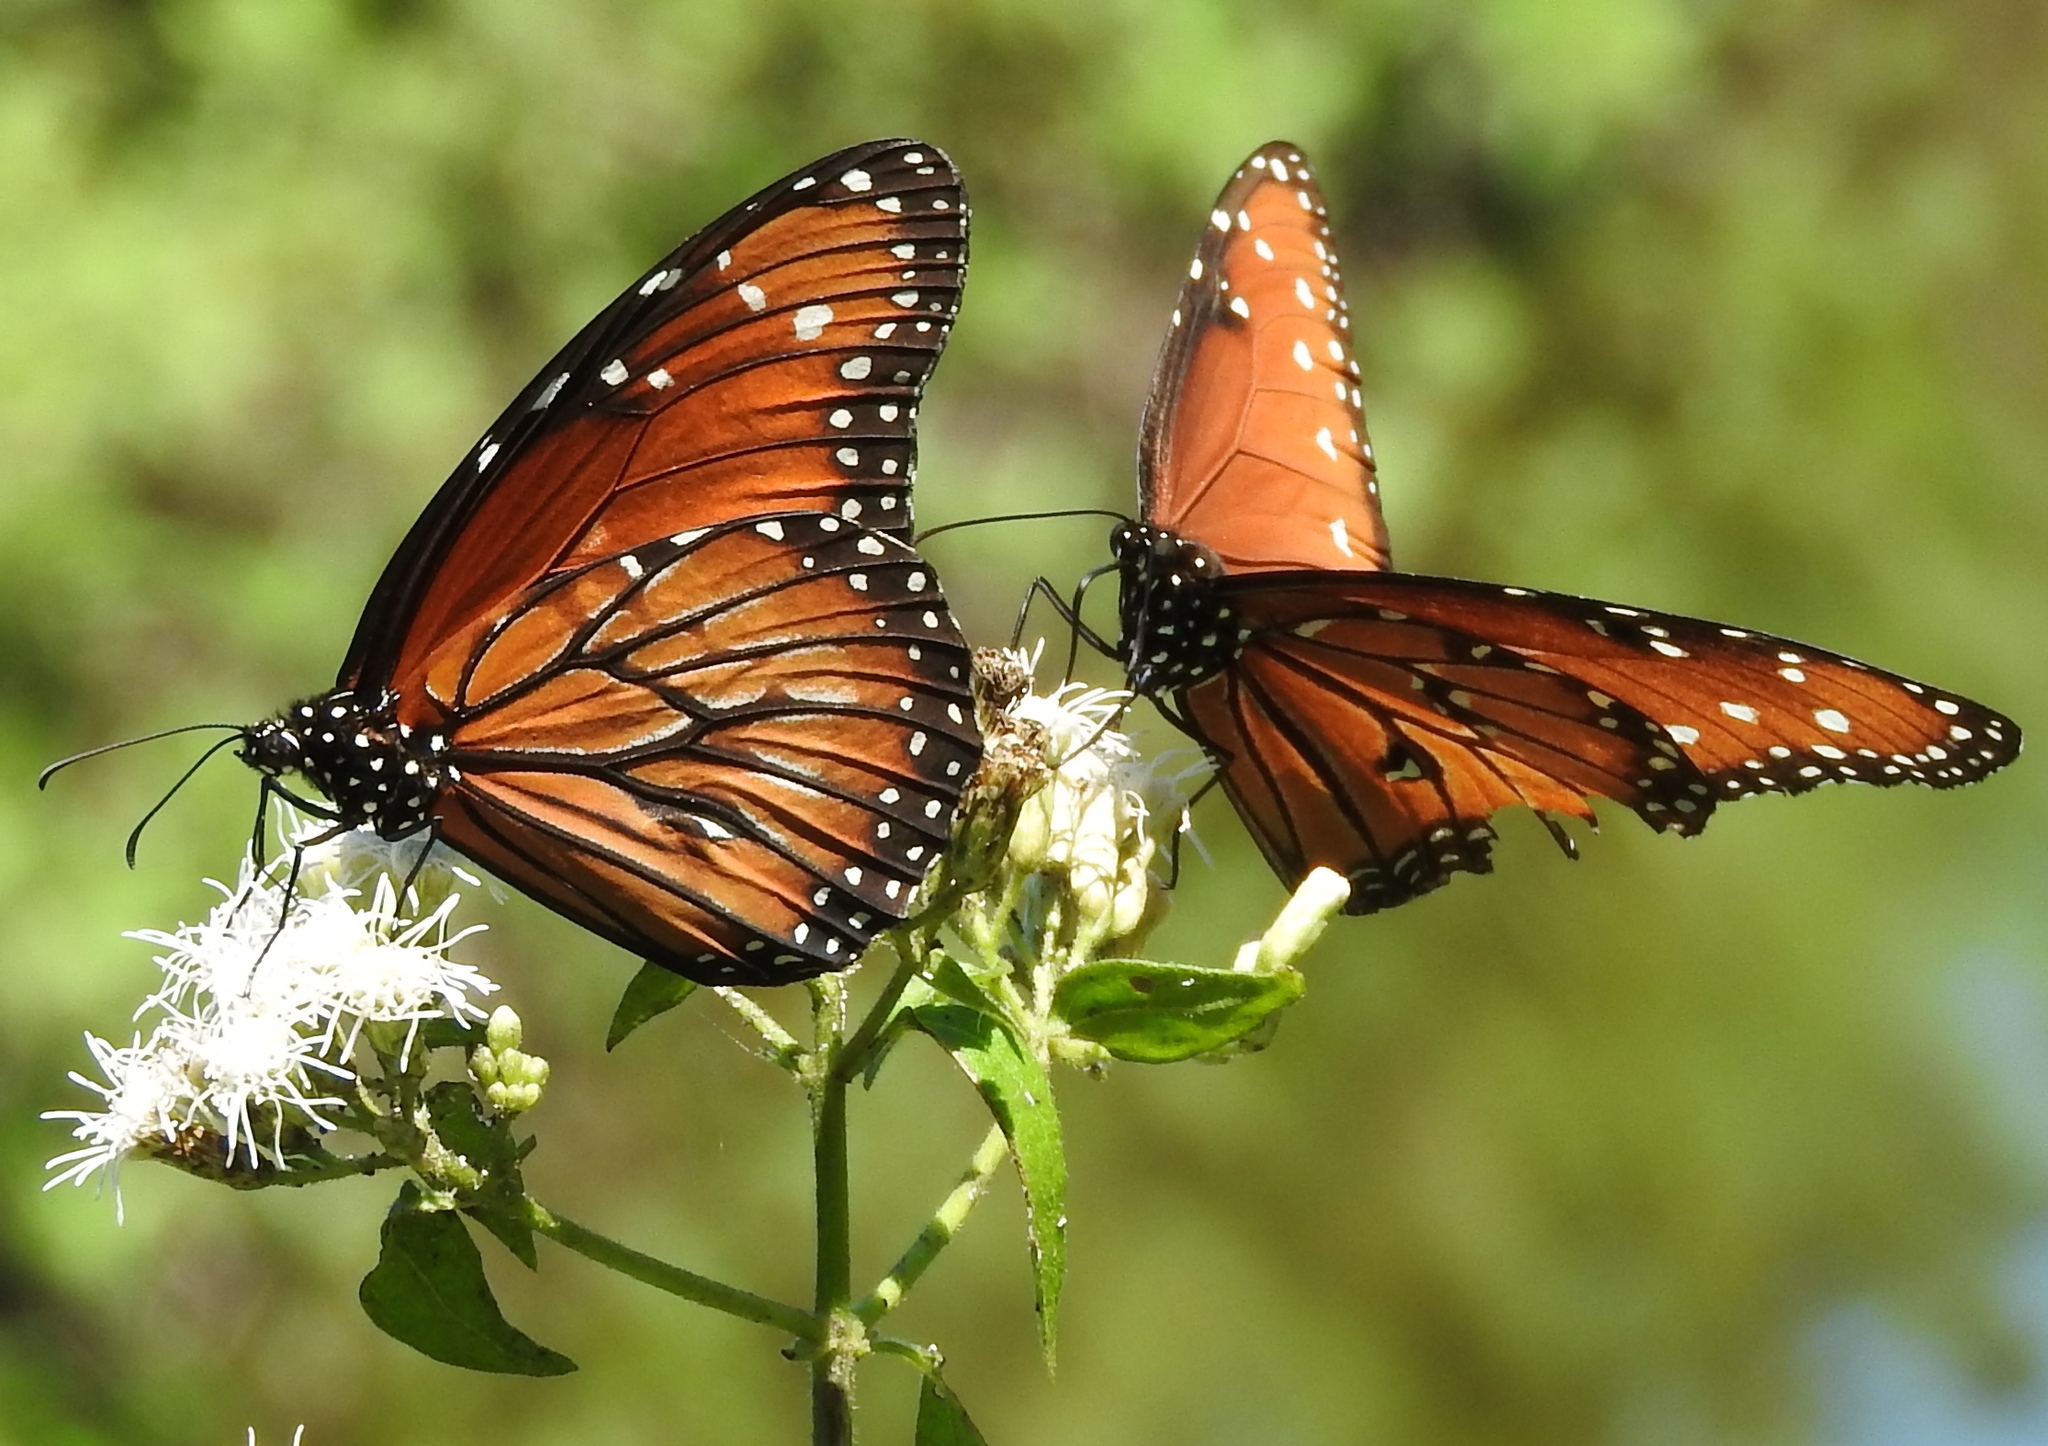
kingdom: Animalia
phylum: Arthropoda
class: Insecta
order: Lepidoptera
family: Nymphalidae
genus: Danaus
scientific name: Danaus eresimus
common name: Soldier
